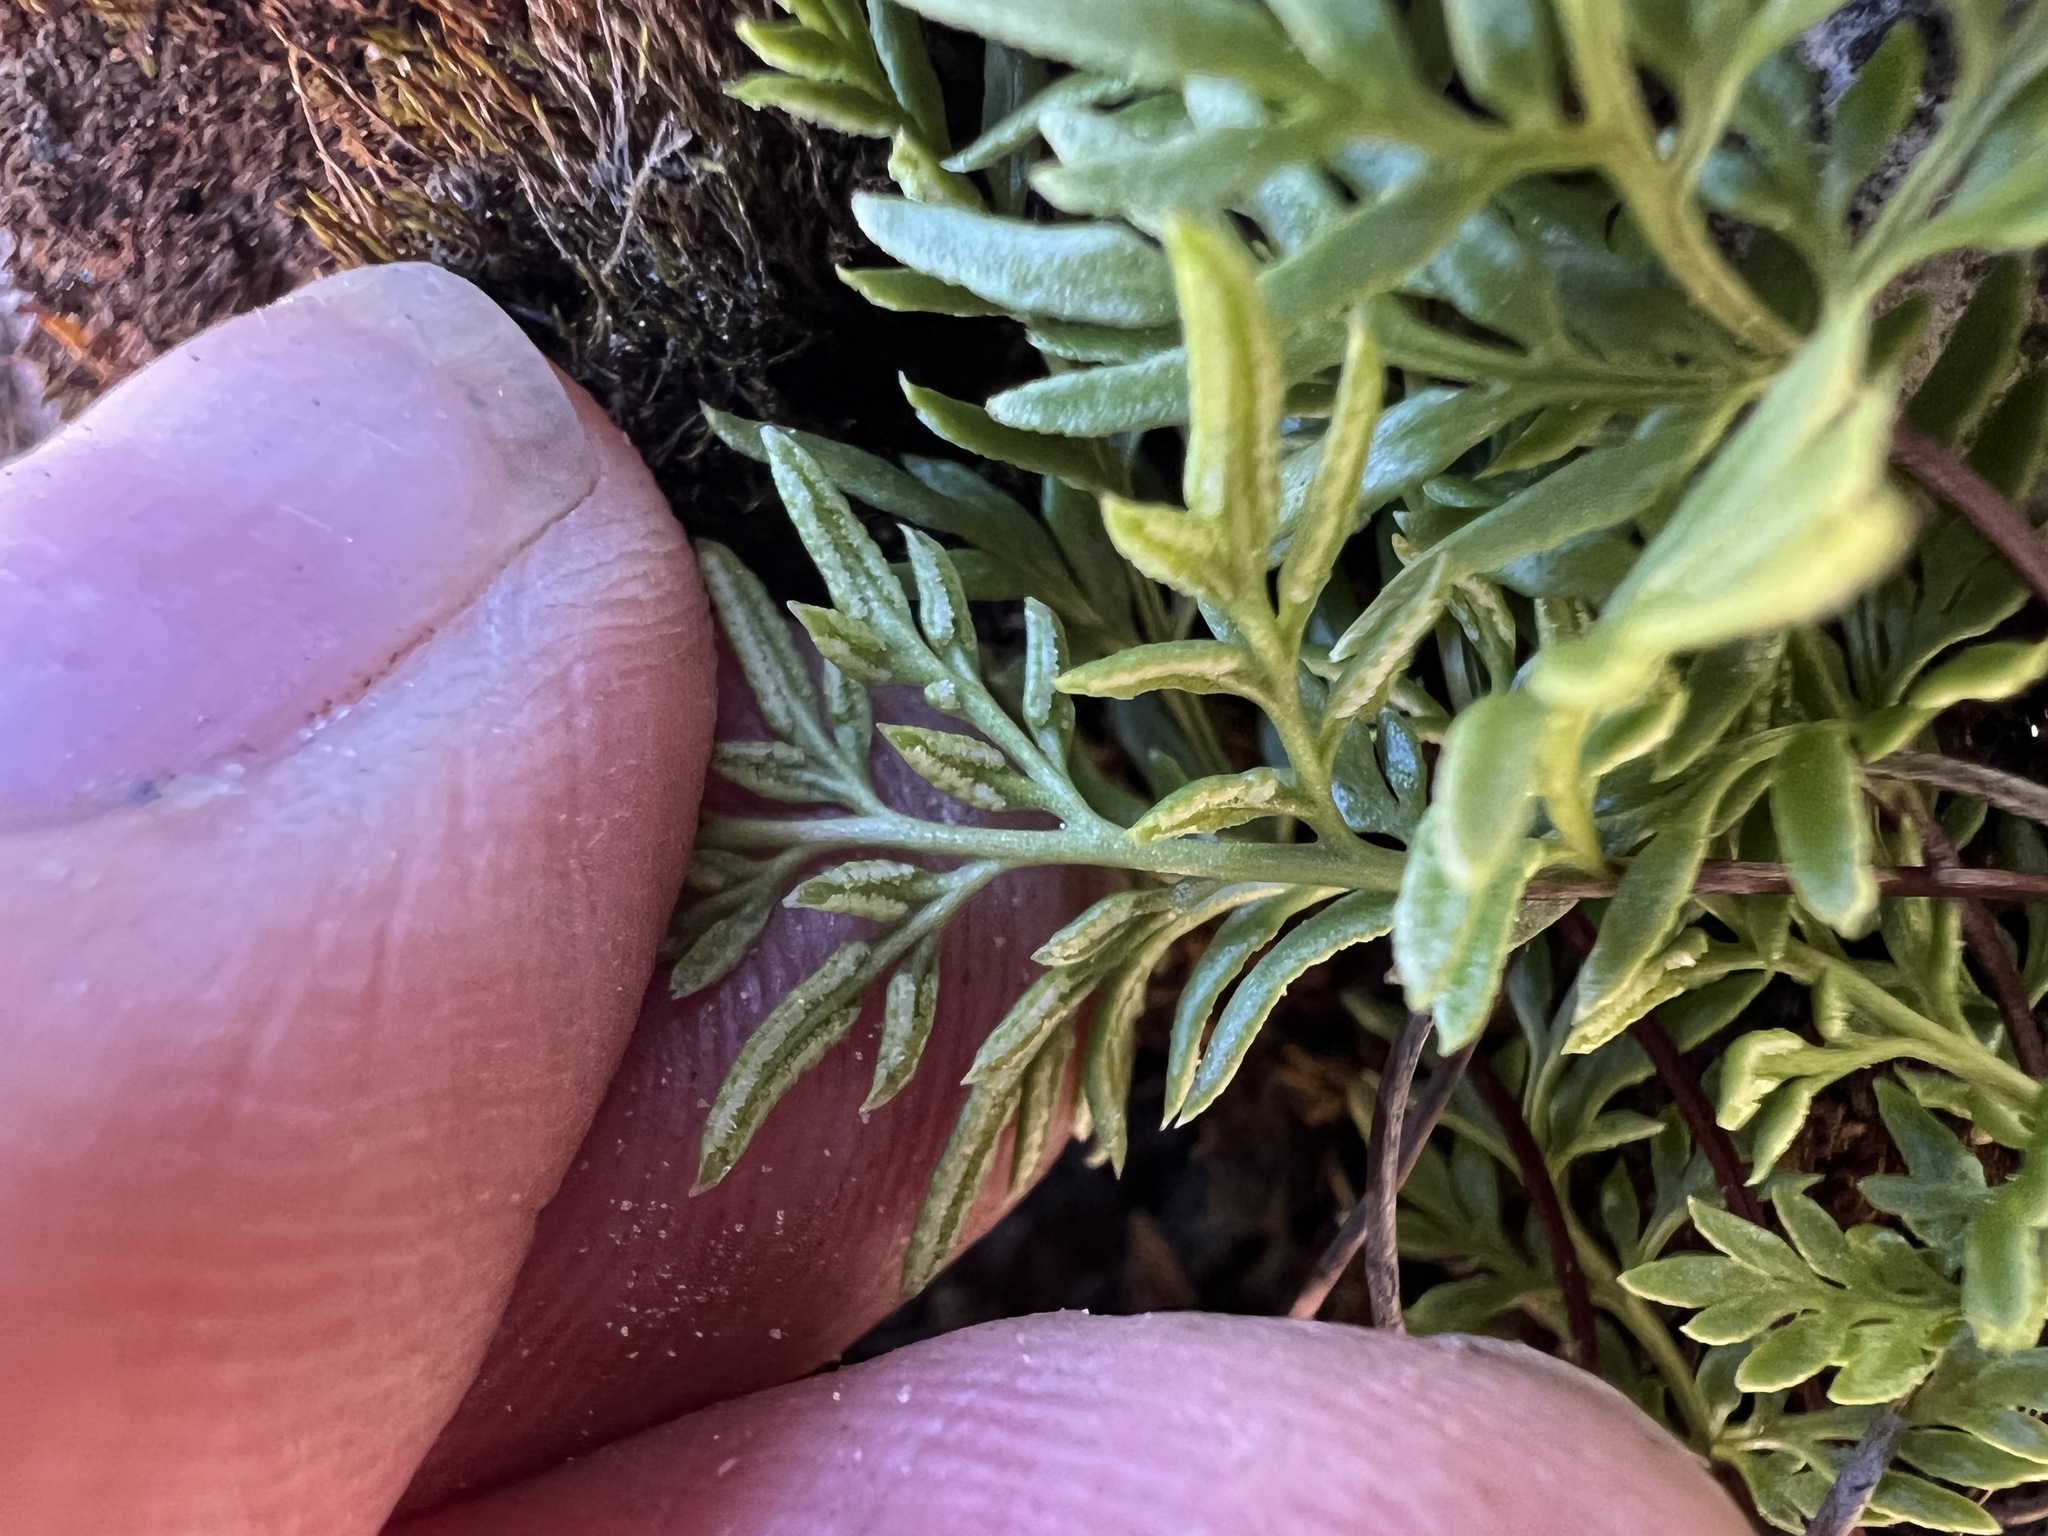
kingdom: Plantae
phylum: Tracheophyta
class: Polypodiopsida
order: Polypodiales
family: Pteridaceae
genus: Aspidotis
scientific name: Aspidotis densa
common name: Indian's dream
